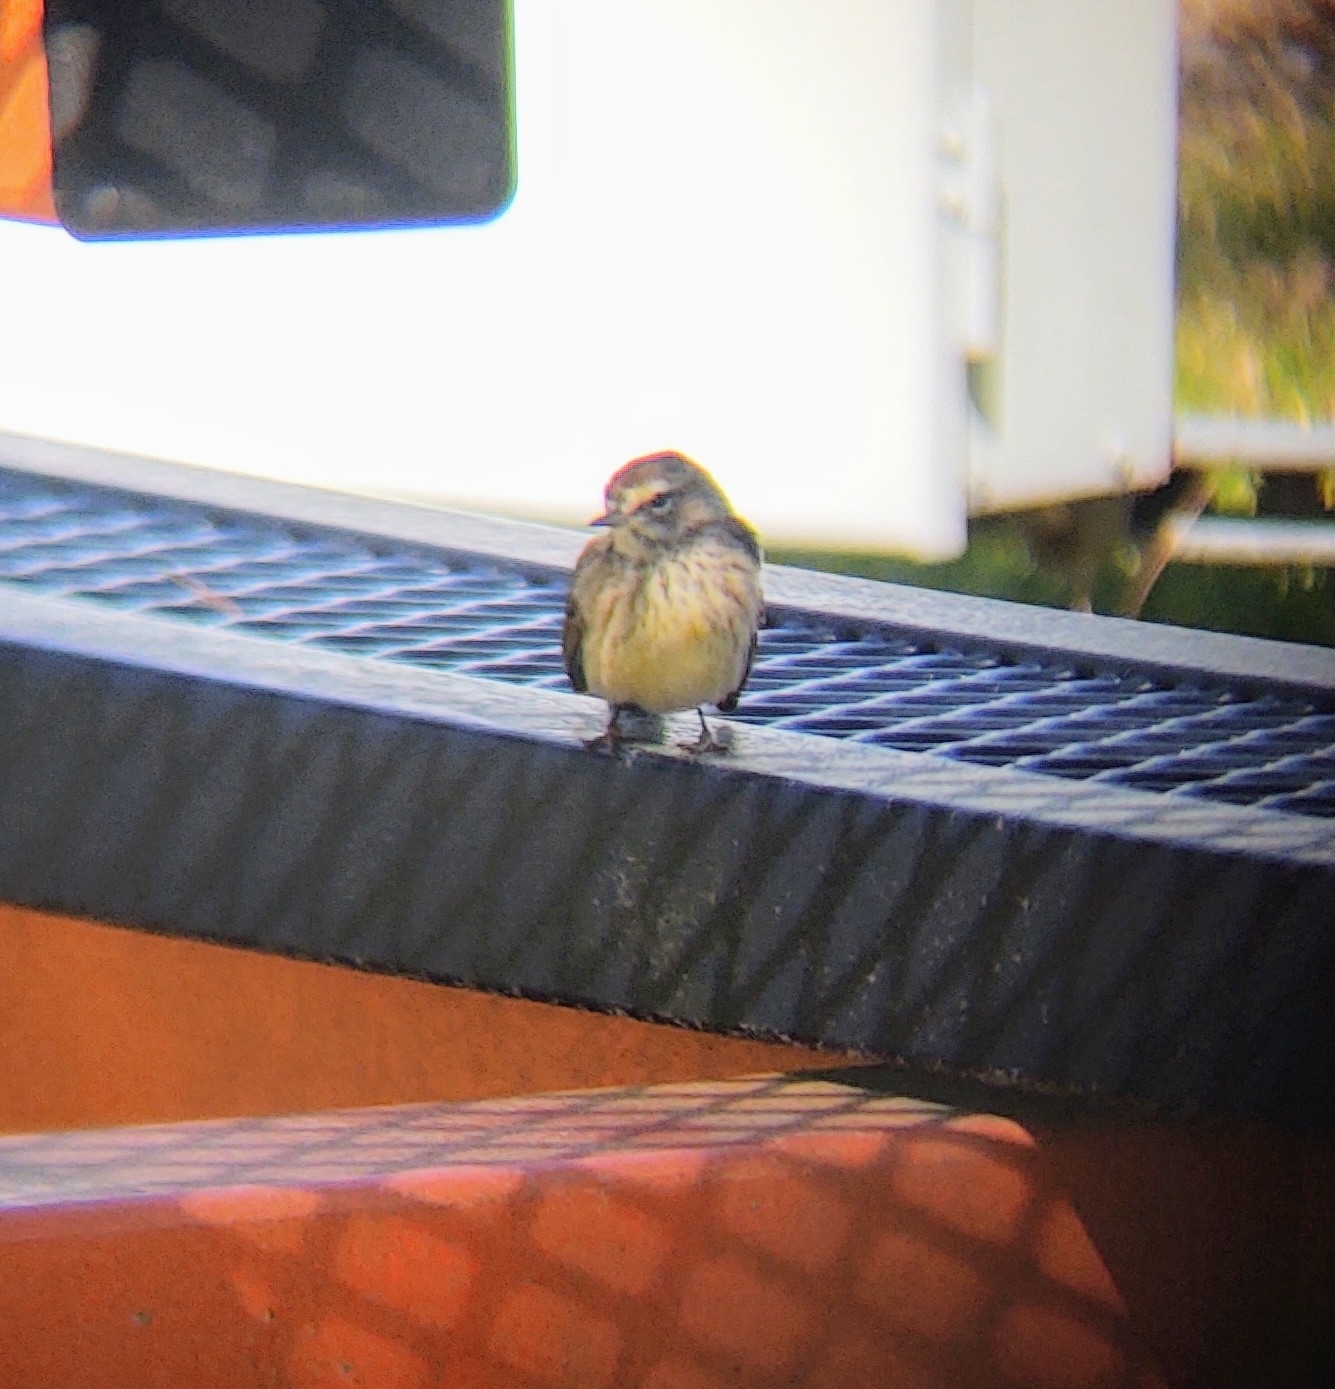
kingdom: Animalia
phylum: Chordata
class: Aves
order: Passeriformes
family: Parulidae
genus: Setophaga
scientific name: Setophaga palmarum
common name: Palm warbler
